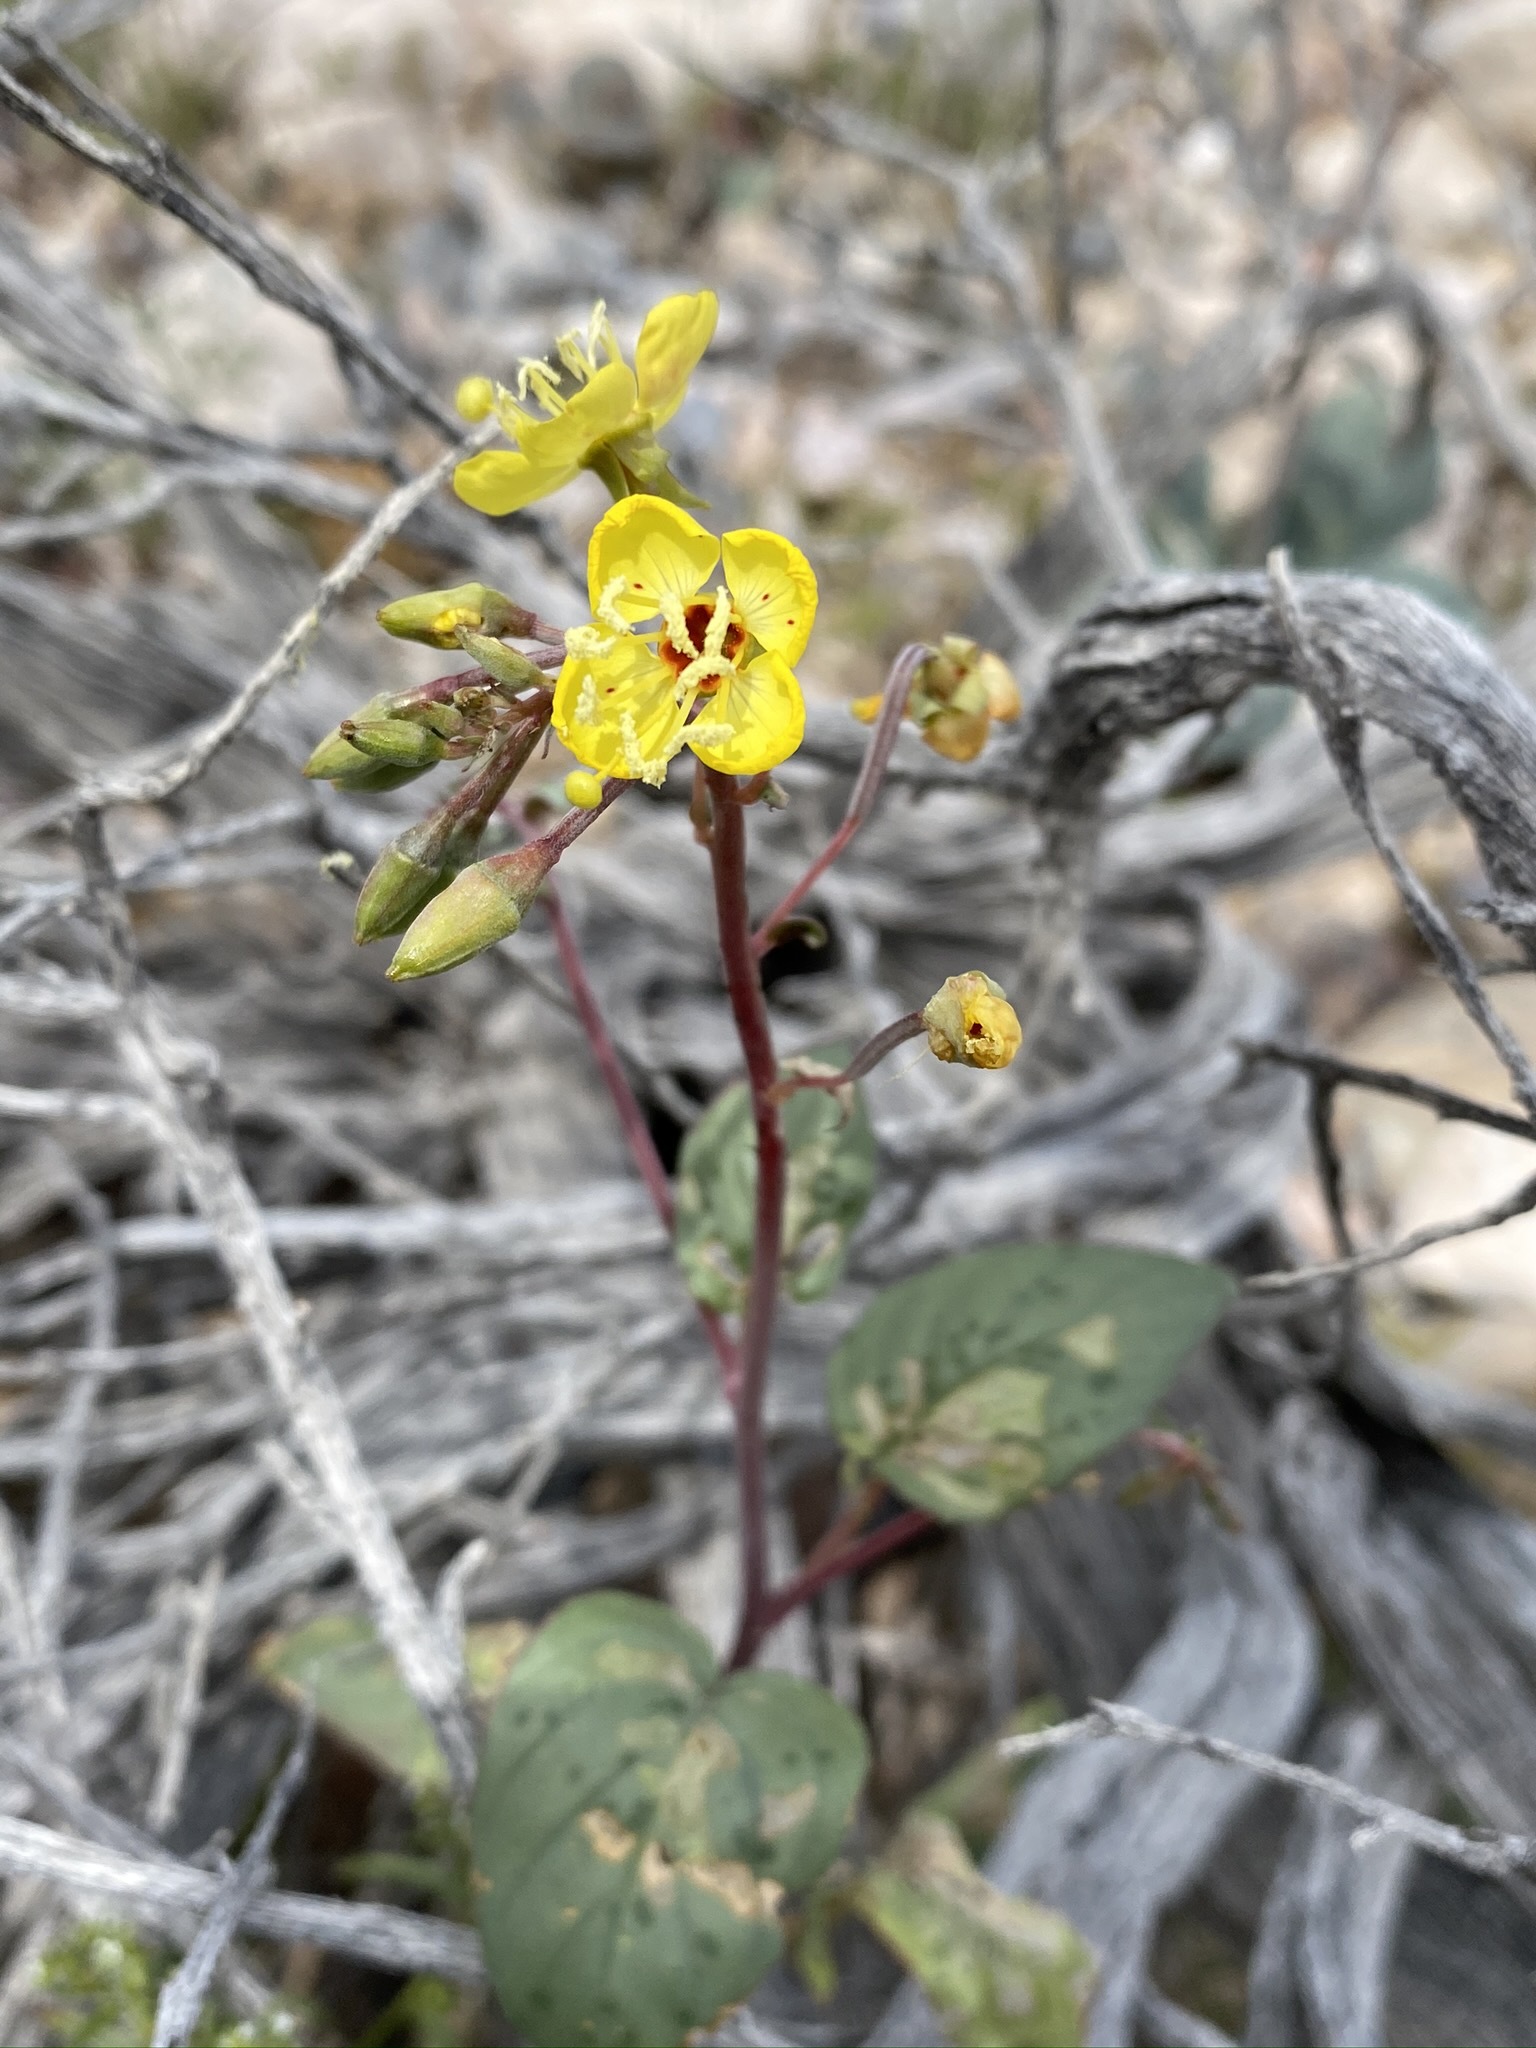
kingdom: Plantae
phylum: Tracheophyta
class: Magnoliopsida
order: Myrtales
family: Onagraceae
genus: Chylismia
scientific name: Chylismia claviformis
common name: Browneyes
